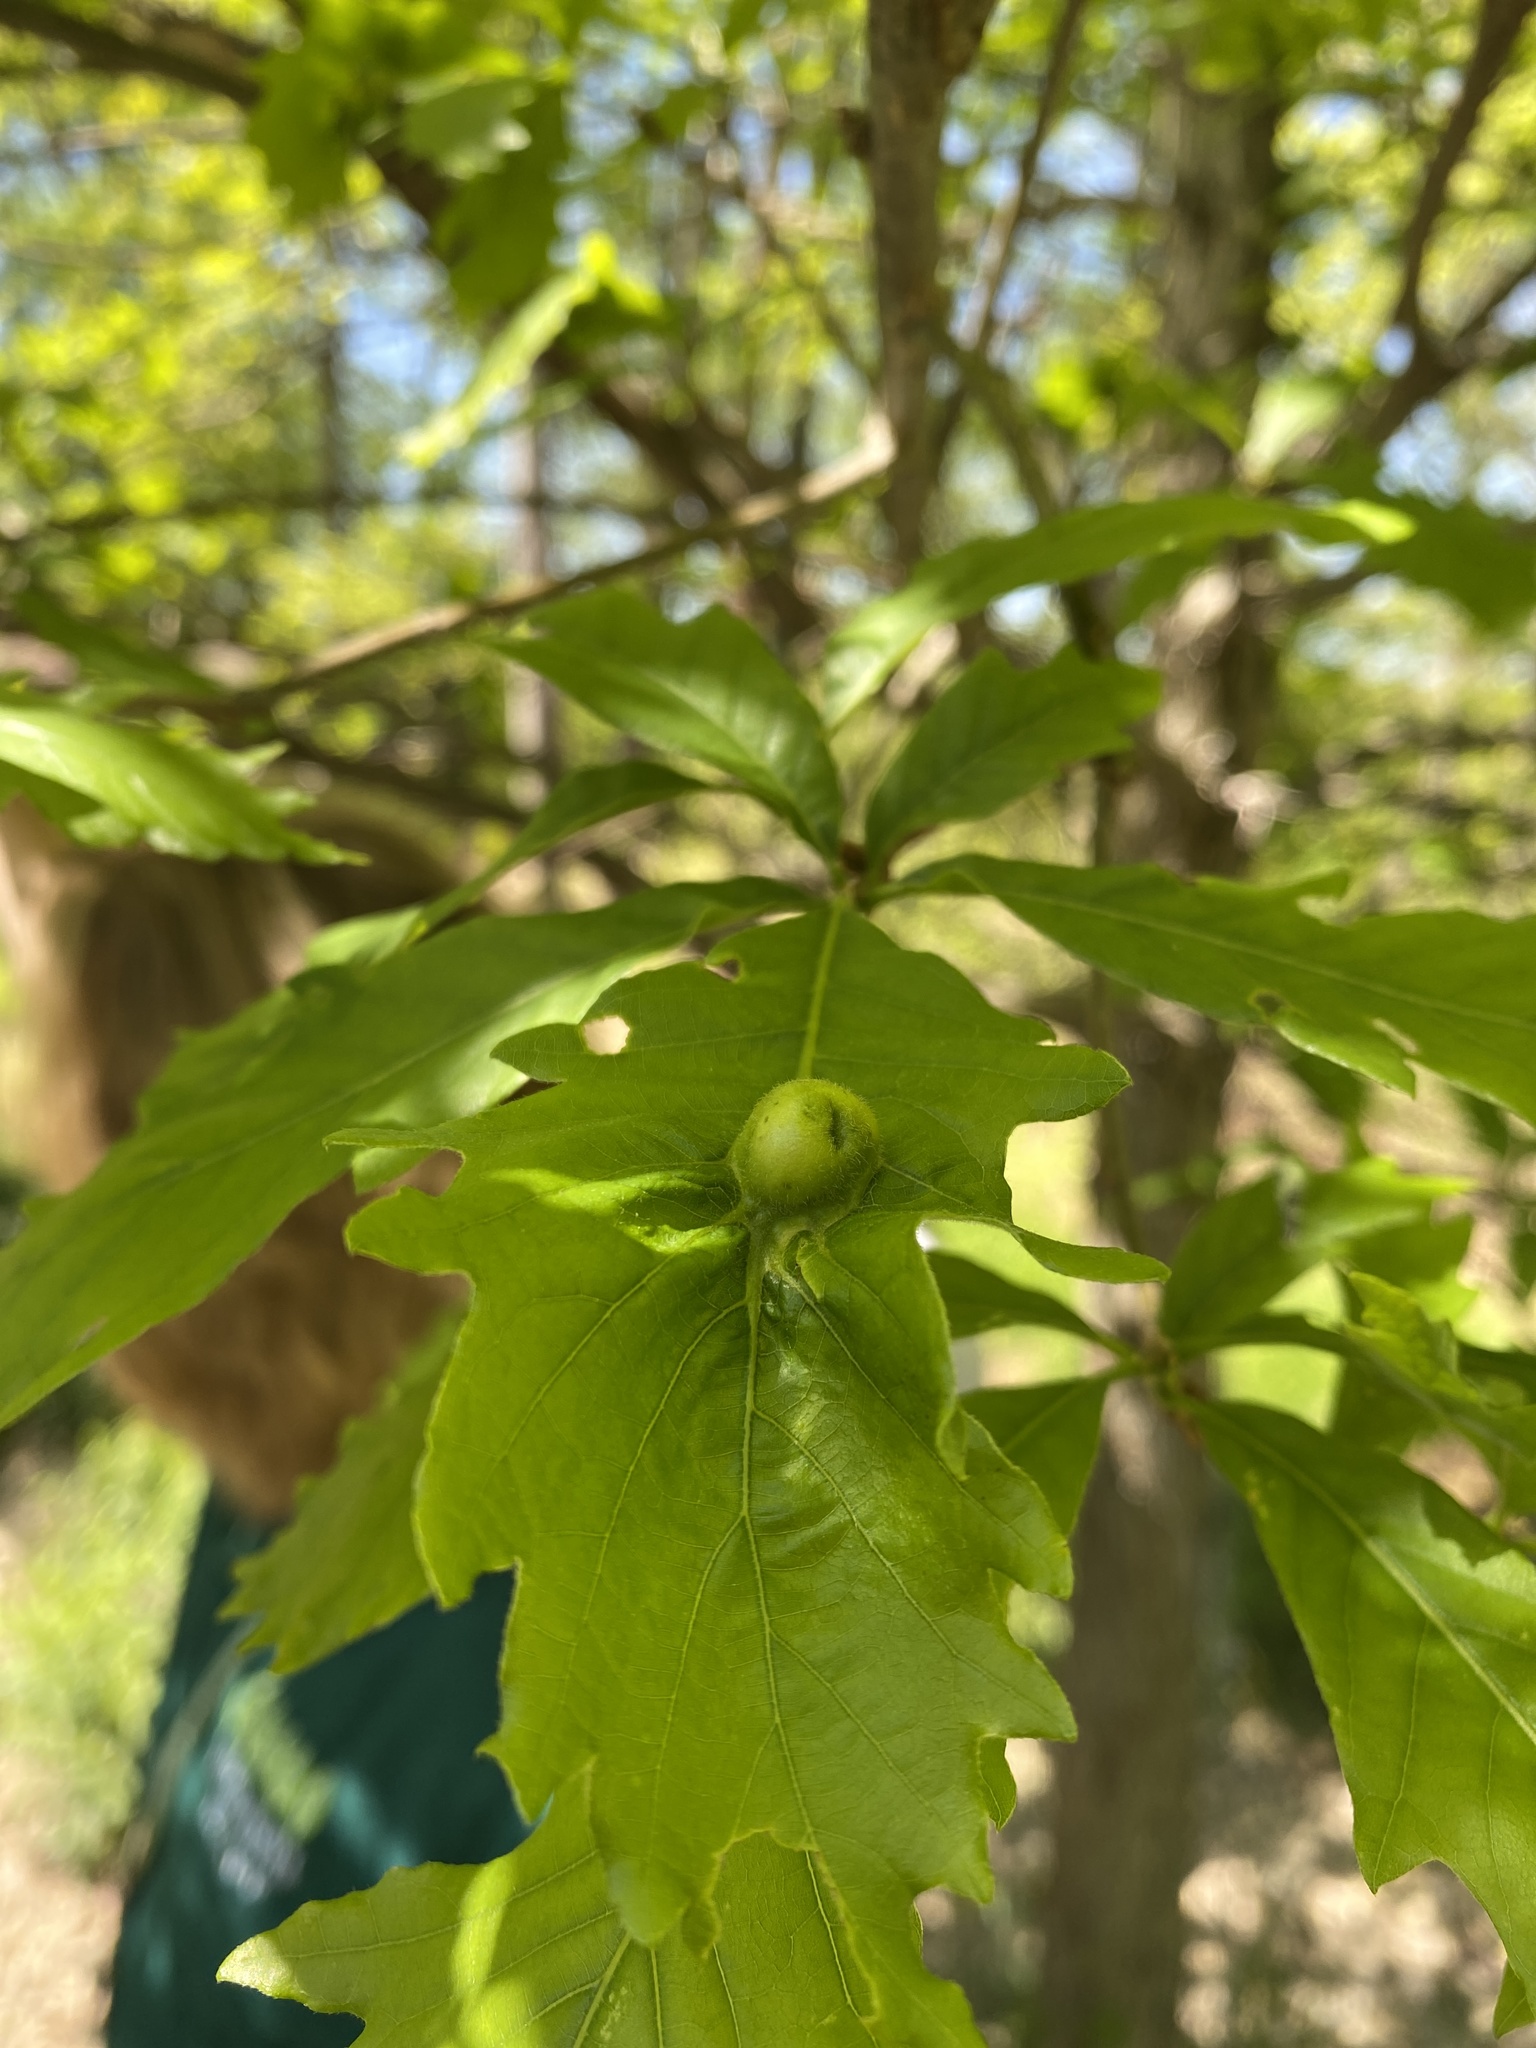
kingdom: Animalia
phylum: Arthropoda
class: Insecta
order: Hymenoptera
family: Cynipidae
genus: Andricus
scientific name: Andricus
